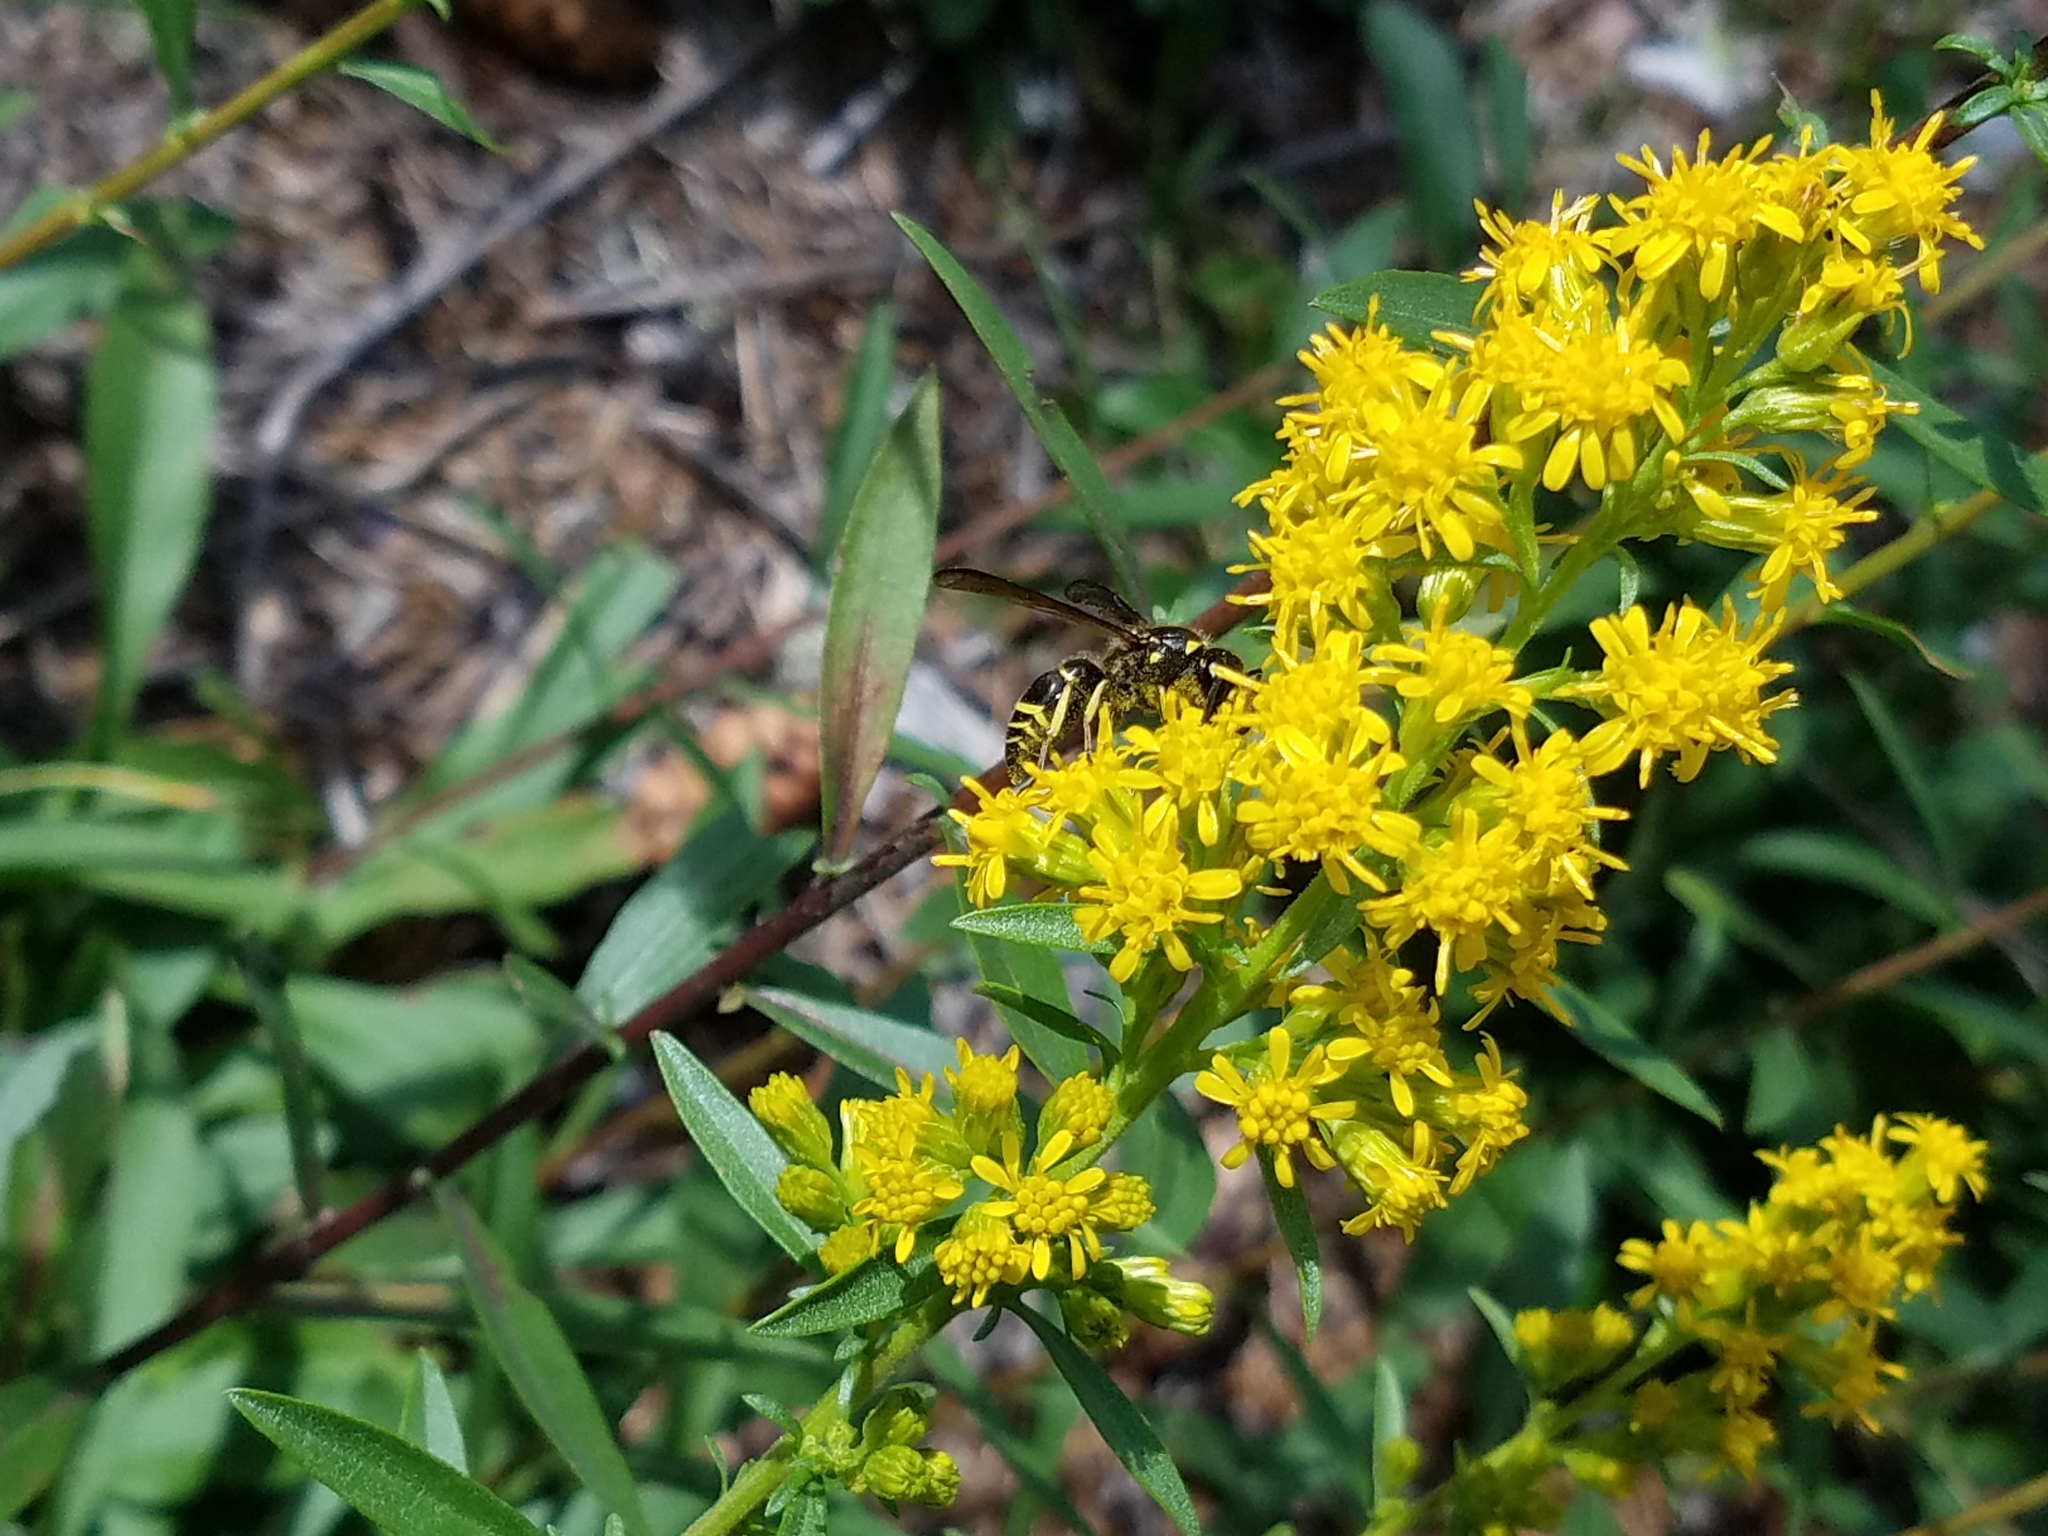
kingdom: Animalia
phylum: Arthropoda
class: Insecta
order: Hymenoptera
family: Vespidae
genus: Ancistrocerus
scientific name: Ancistrocerus
